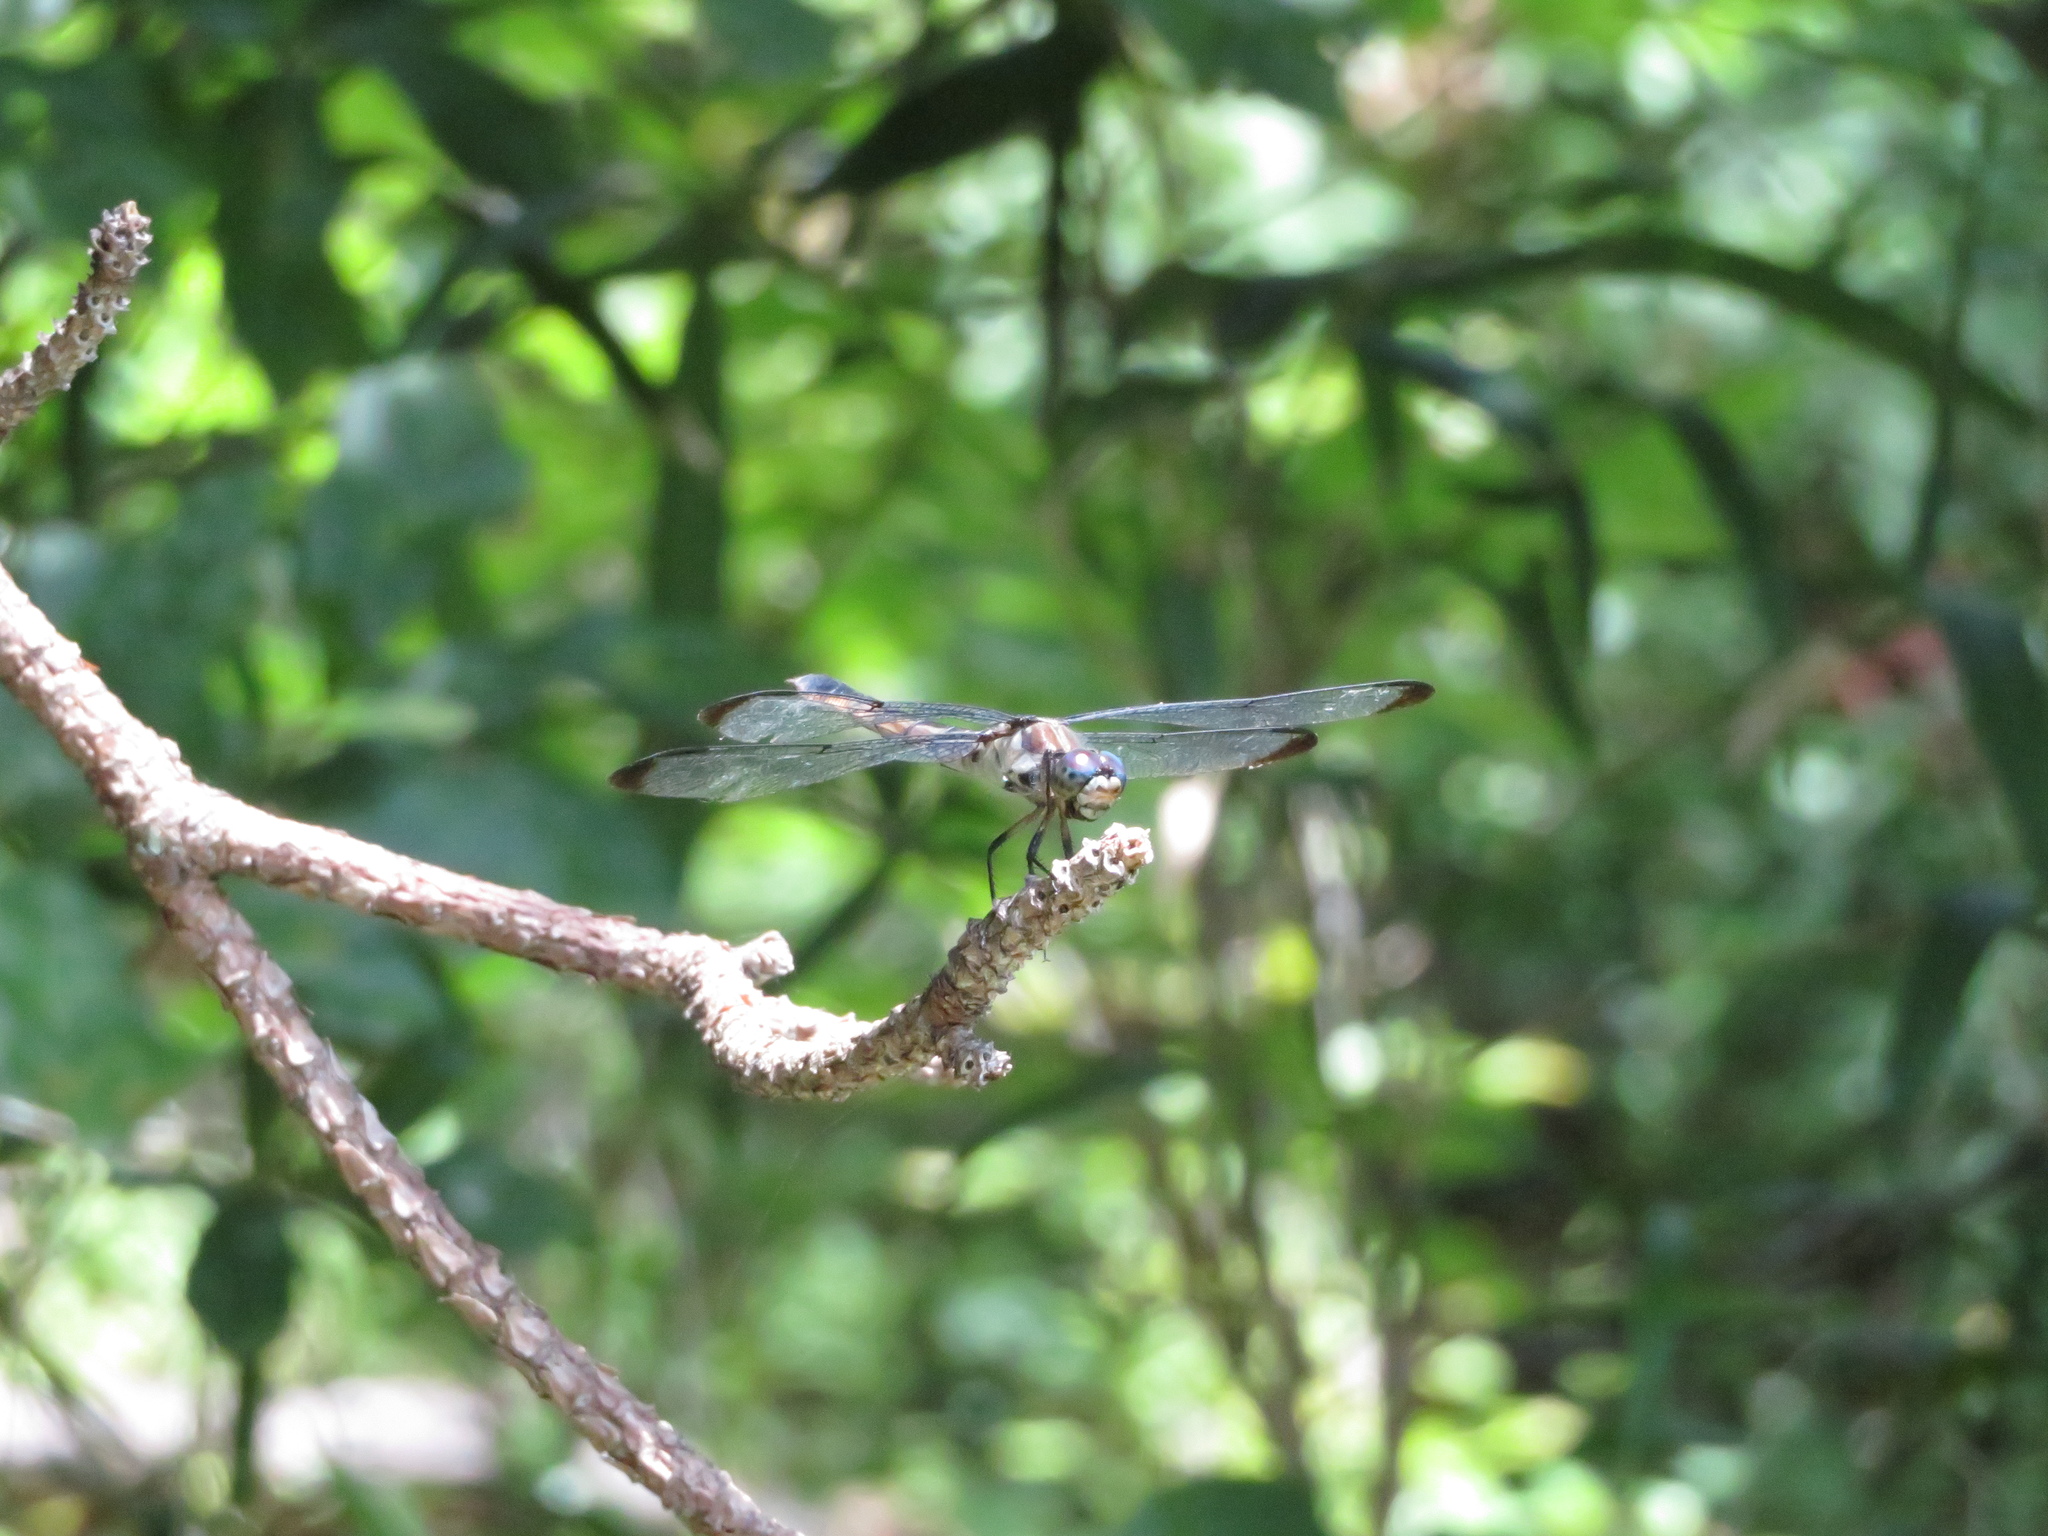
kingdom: Animalia
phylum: Arthropoda
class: Insecta
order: Odonata
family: Libellulidae
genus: Libellula
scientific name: Libellula vibrans
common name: Great blue skimmer
